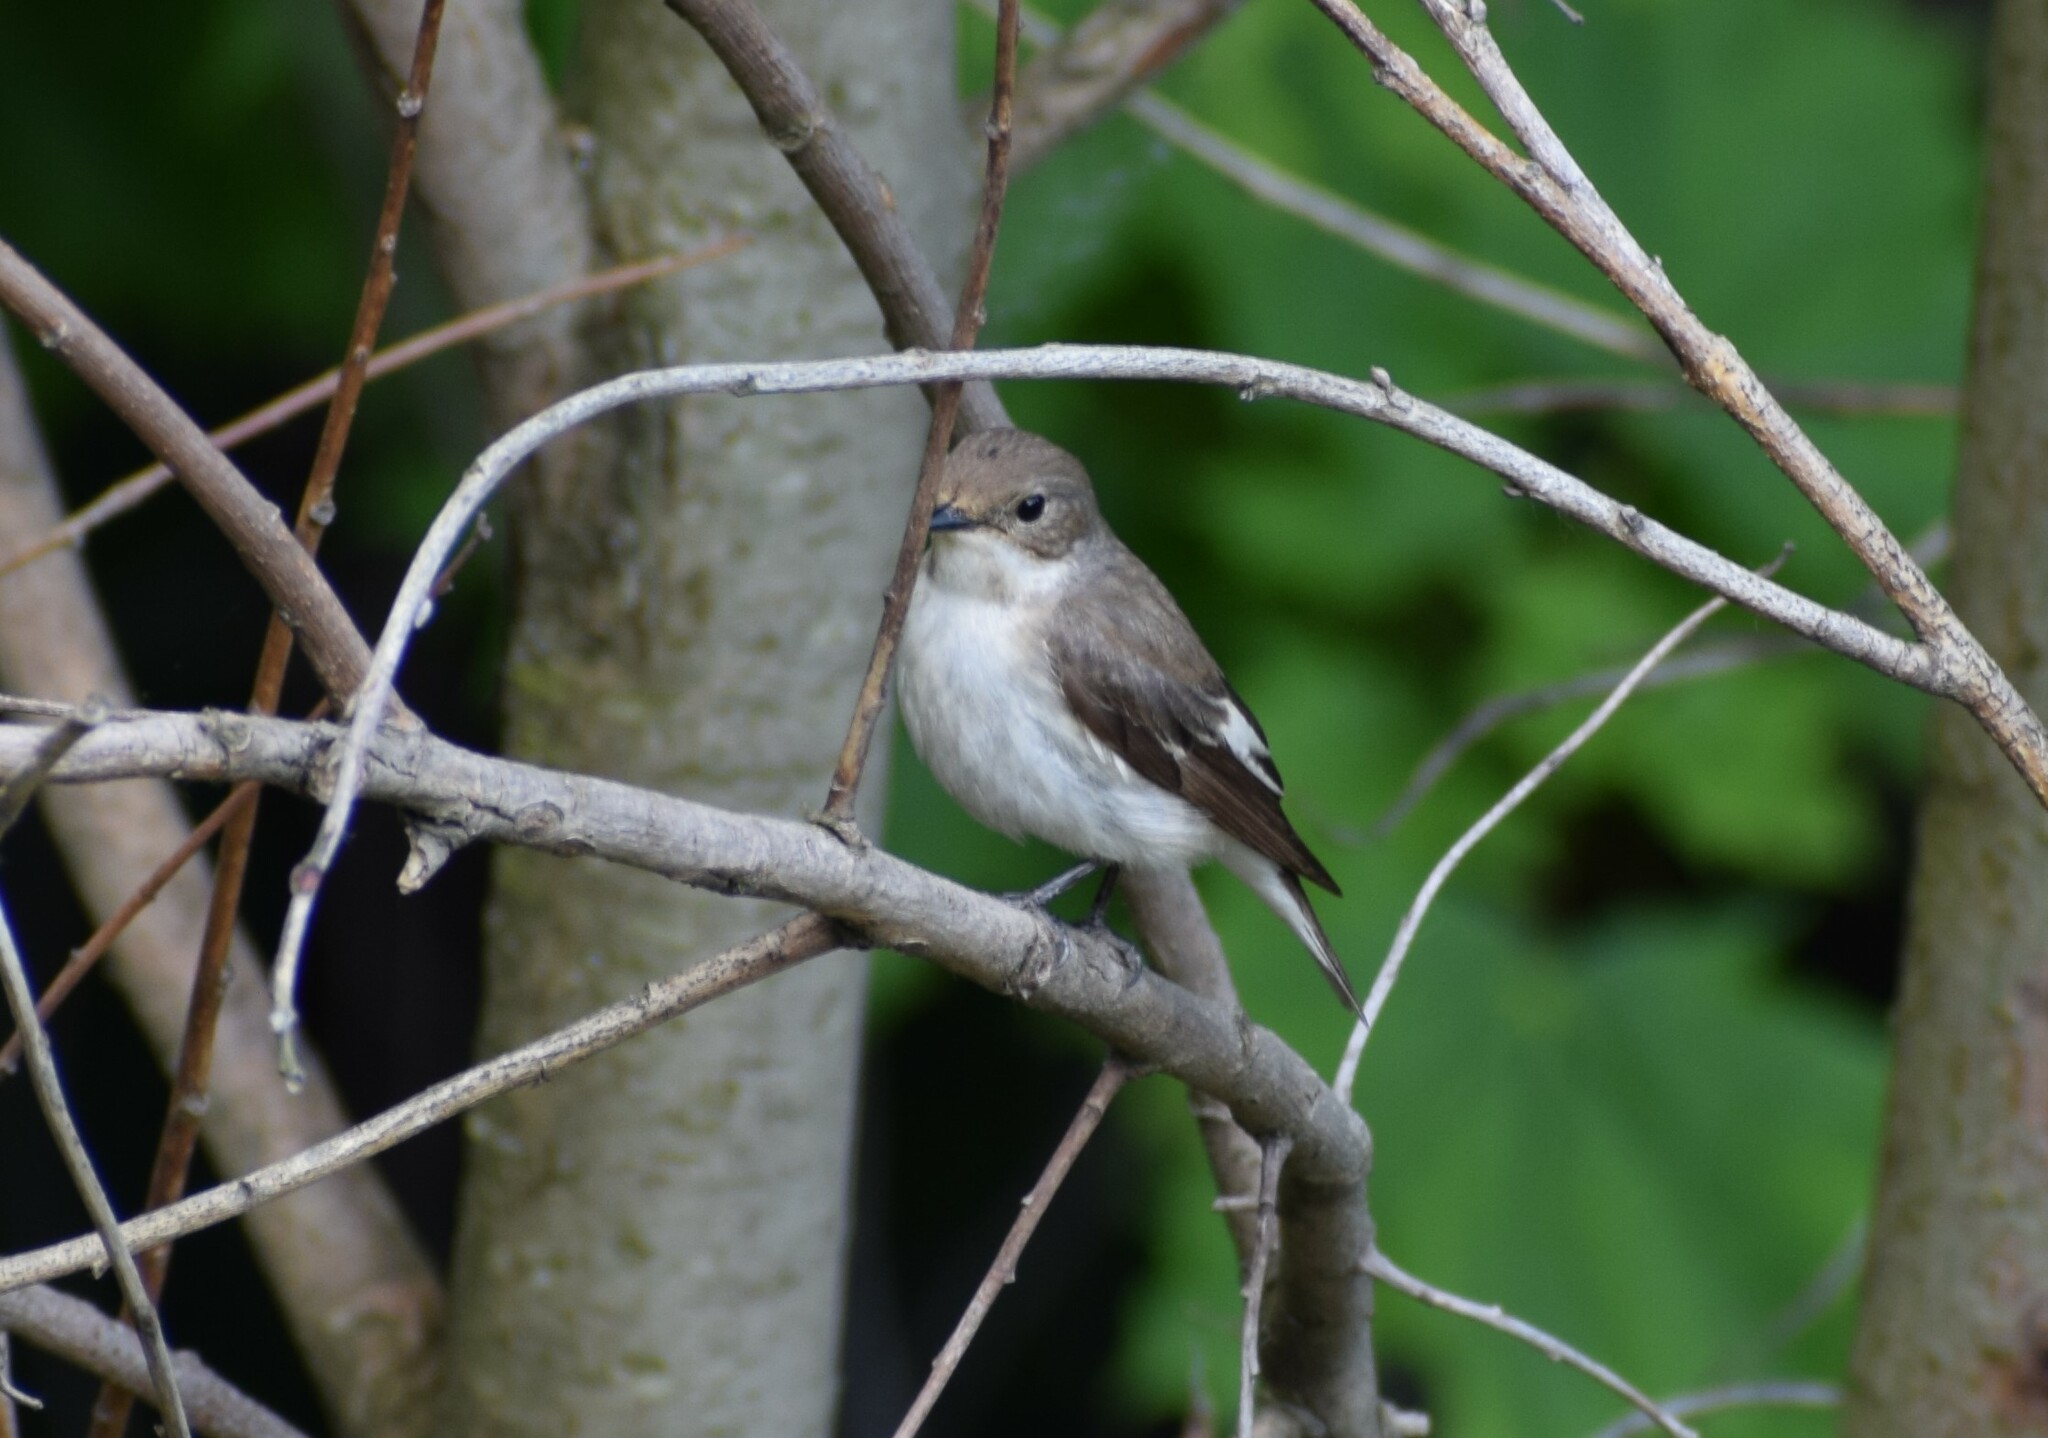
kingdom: Animalia
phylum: Chordata
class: Aves
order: Passeriformes
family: Muscicapidae
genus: Ficedula
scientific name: Ficedula hypoleuca
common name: European pied flycatcher
